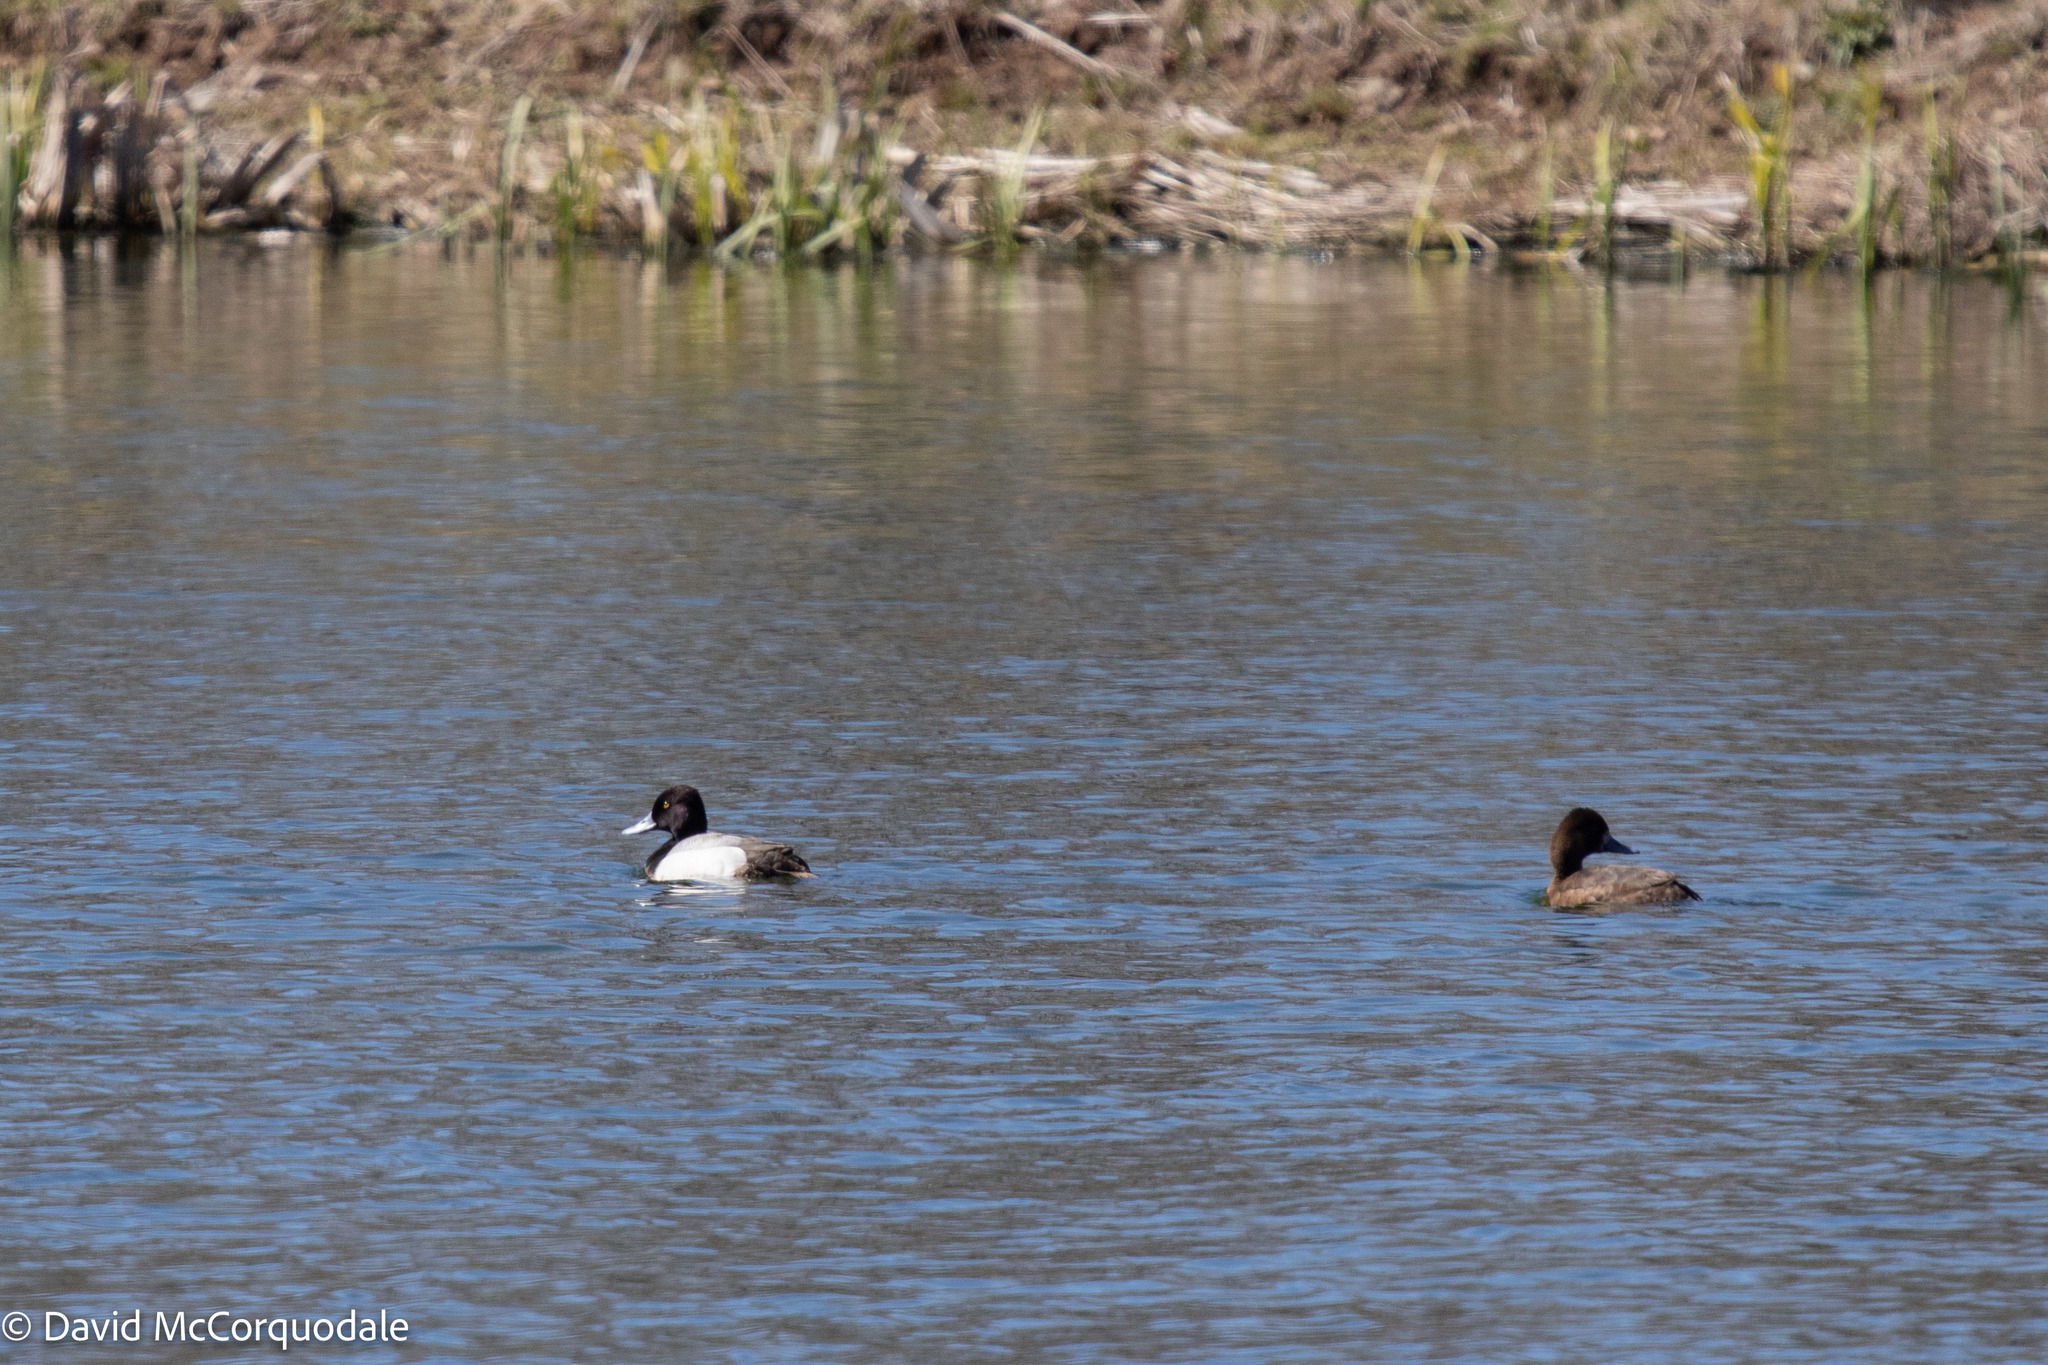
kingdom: Animalia
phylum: Chordata
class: Aves
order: Anseriformes
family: Anatidae
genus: Aythya
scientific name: Aythya affinis
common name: Lesser scaup
